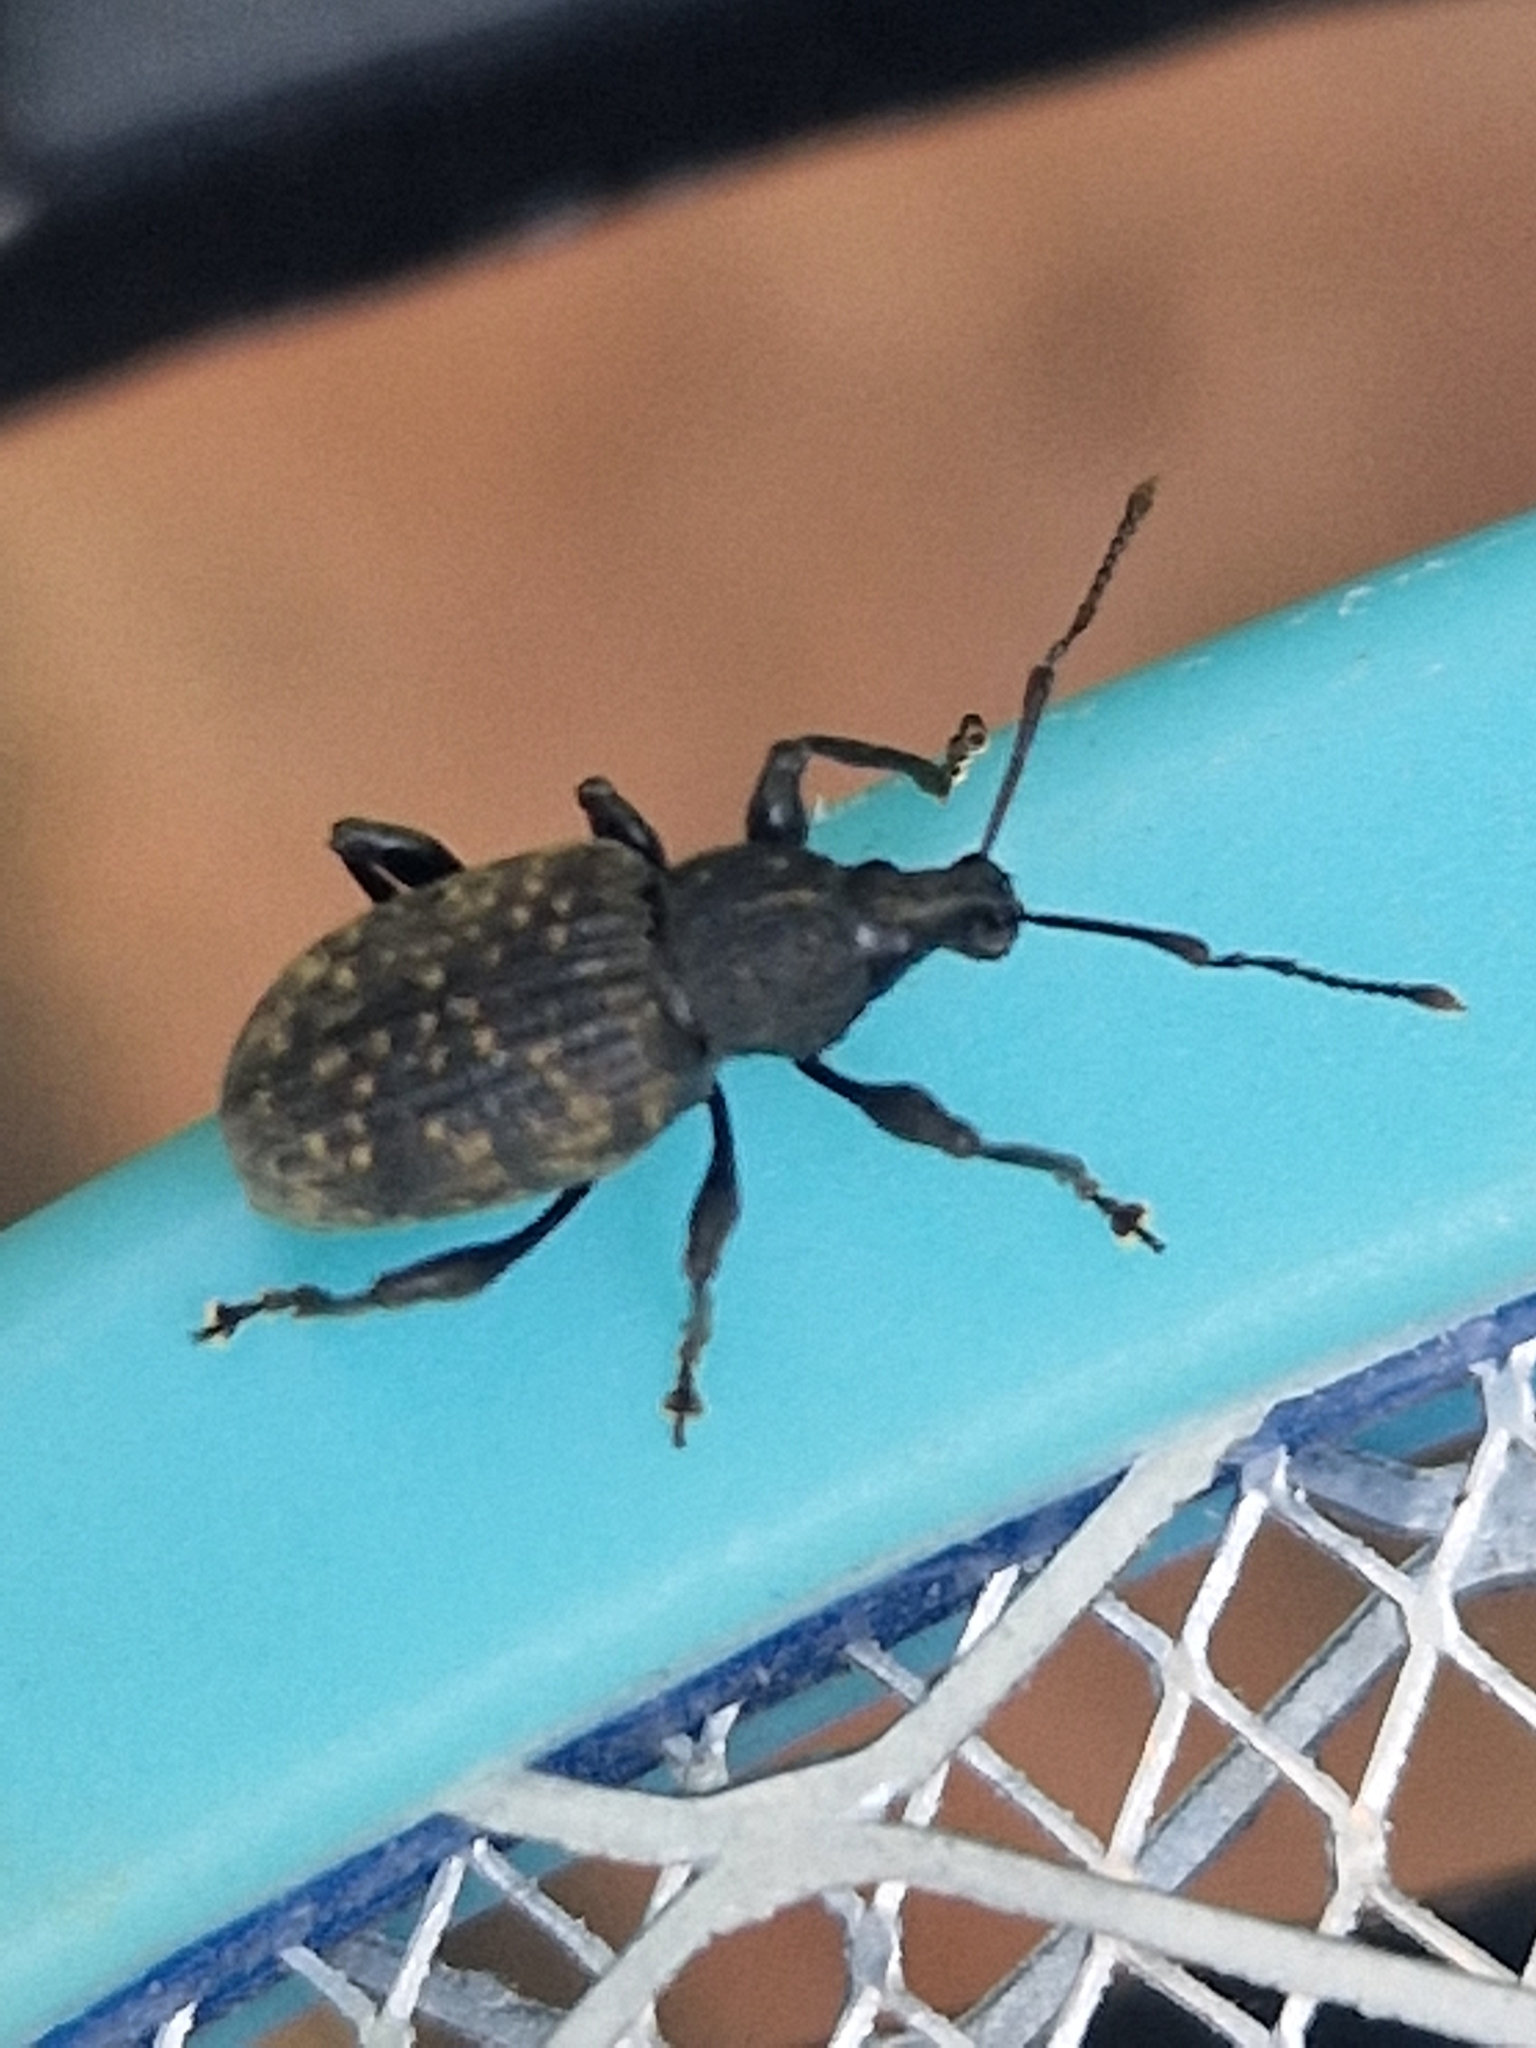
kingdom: Animalia
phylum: Arthropoda
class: Insecta
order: Coleoptera
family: Curculionidae
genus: Otiorhynchus
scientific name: Otiorhynchus sulcatus
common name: Black vine weevil
